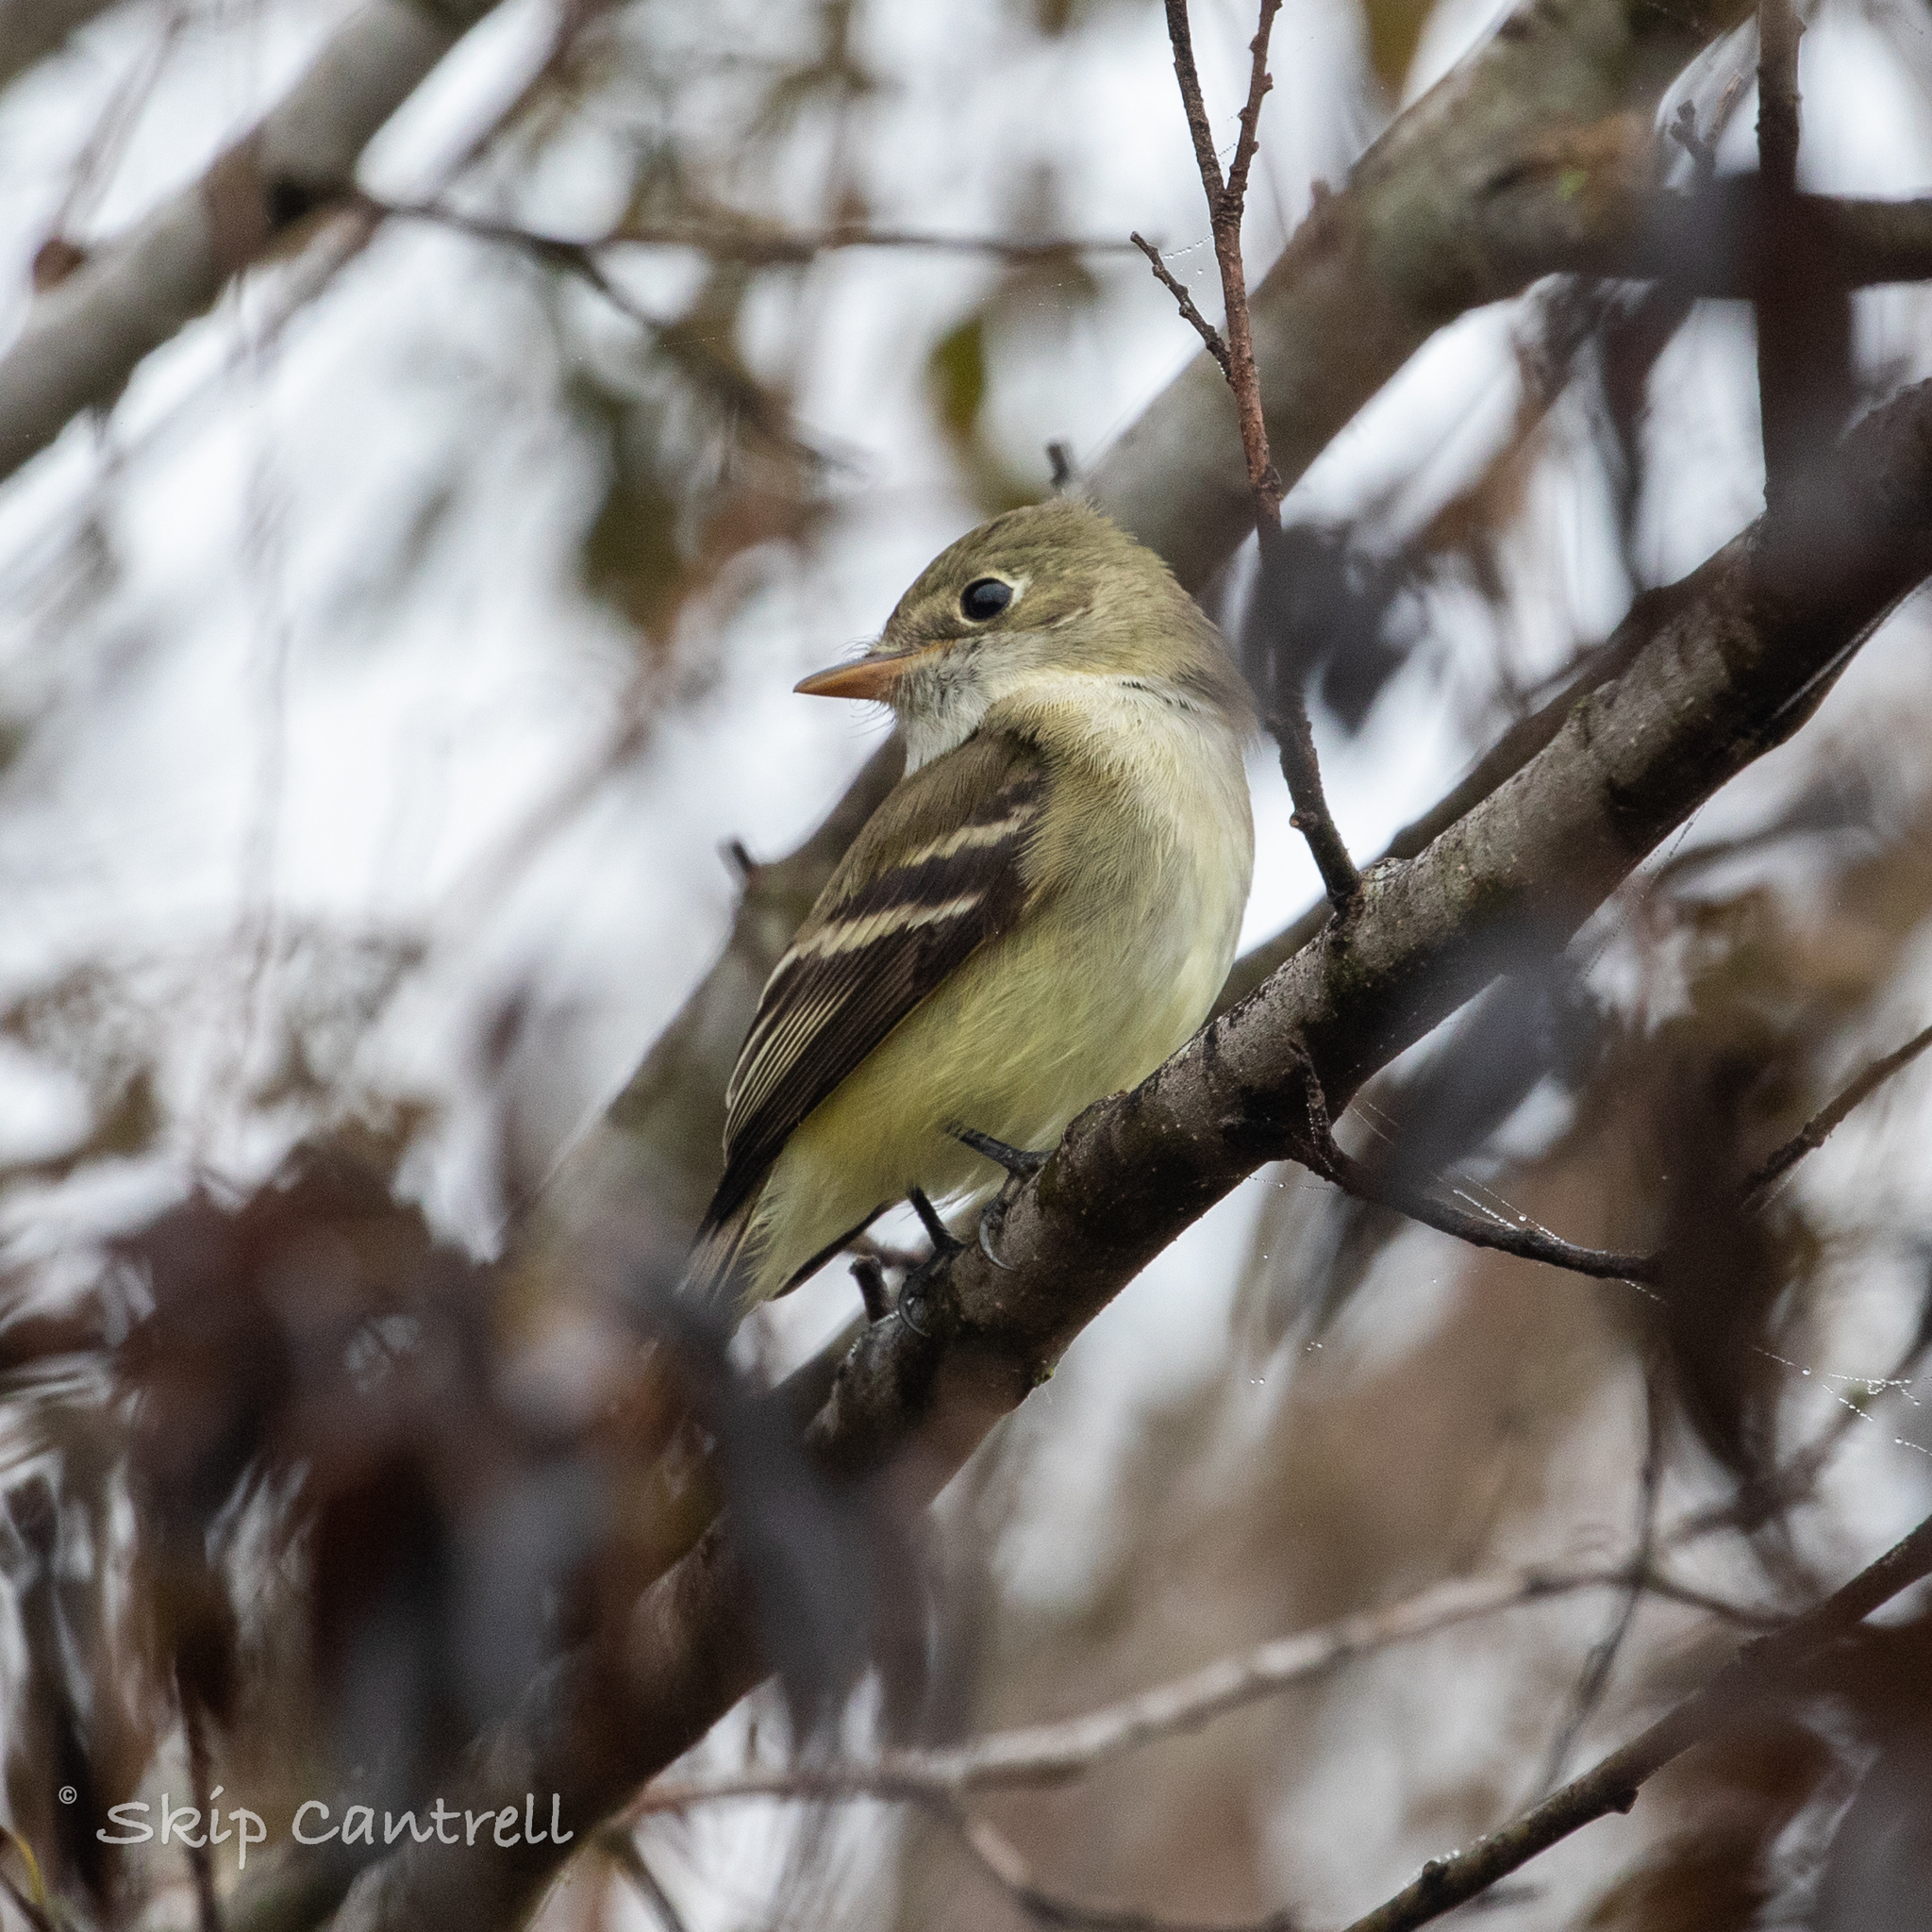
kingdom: Animalia
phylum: Chordata
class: Aves
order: Passeriformes
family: Tyrannidae
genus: Empidonax
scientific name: Empidonax minimus
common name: Least flycatcher
